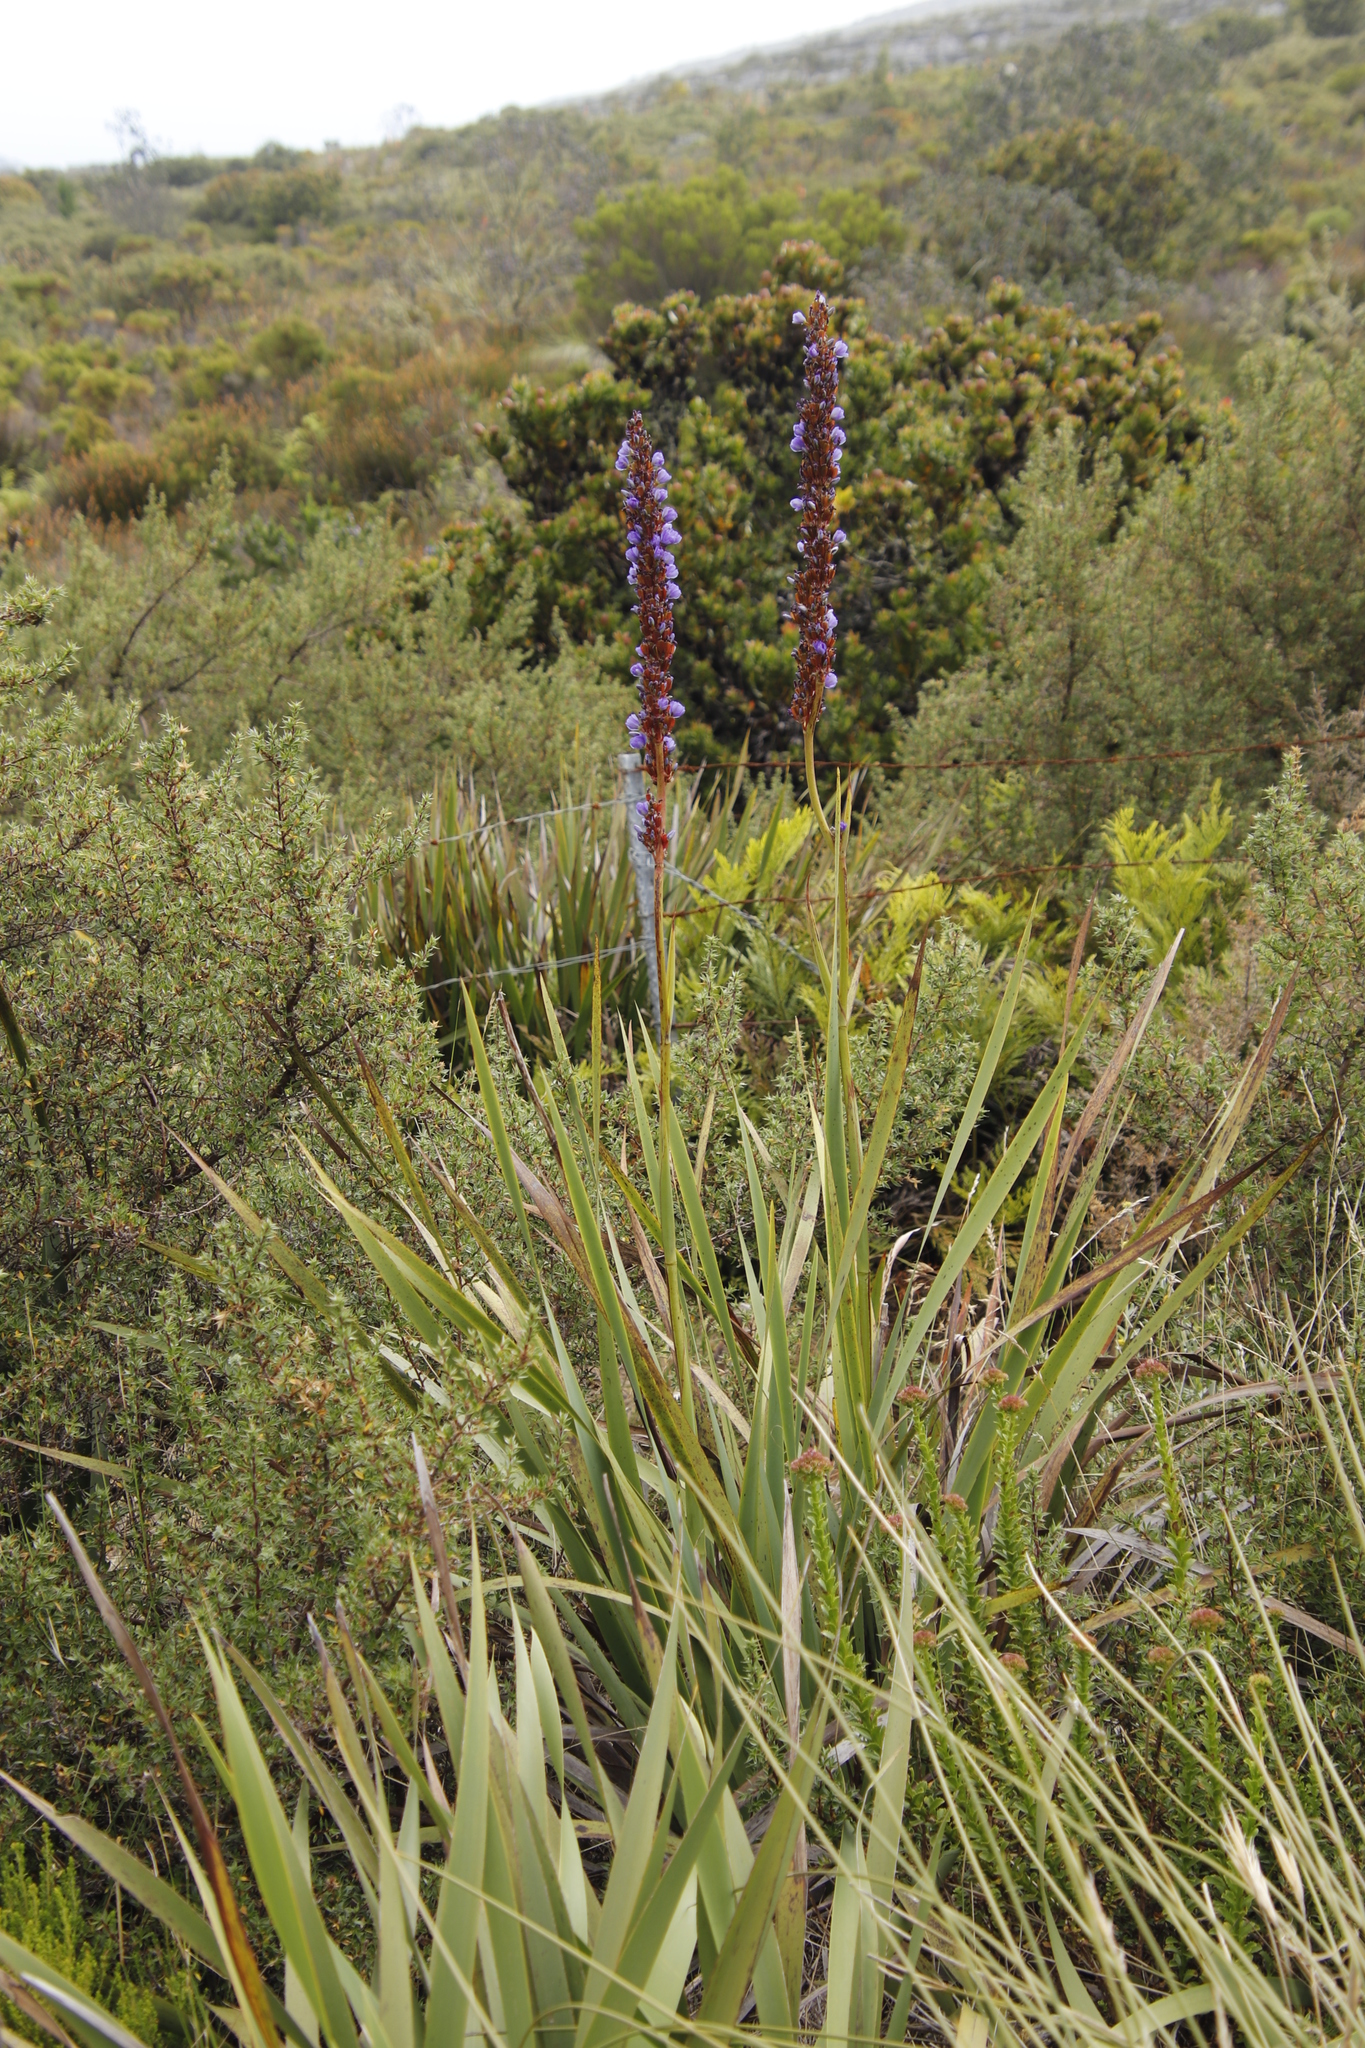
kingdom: Plantae
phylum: Tracheophyta
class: Liliopsida
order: Asparagales
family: Iridaceae
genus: Aristea
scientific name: Aristea capitata
